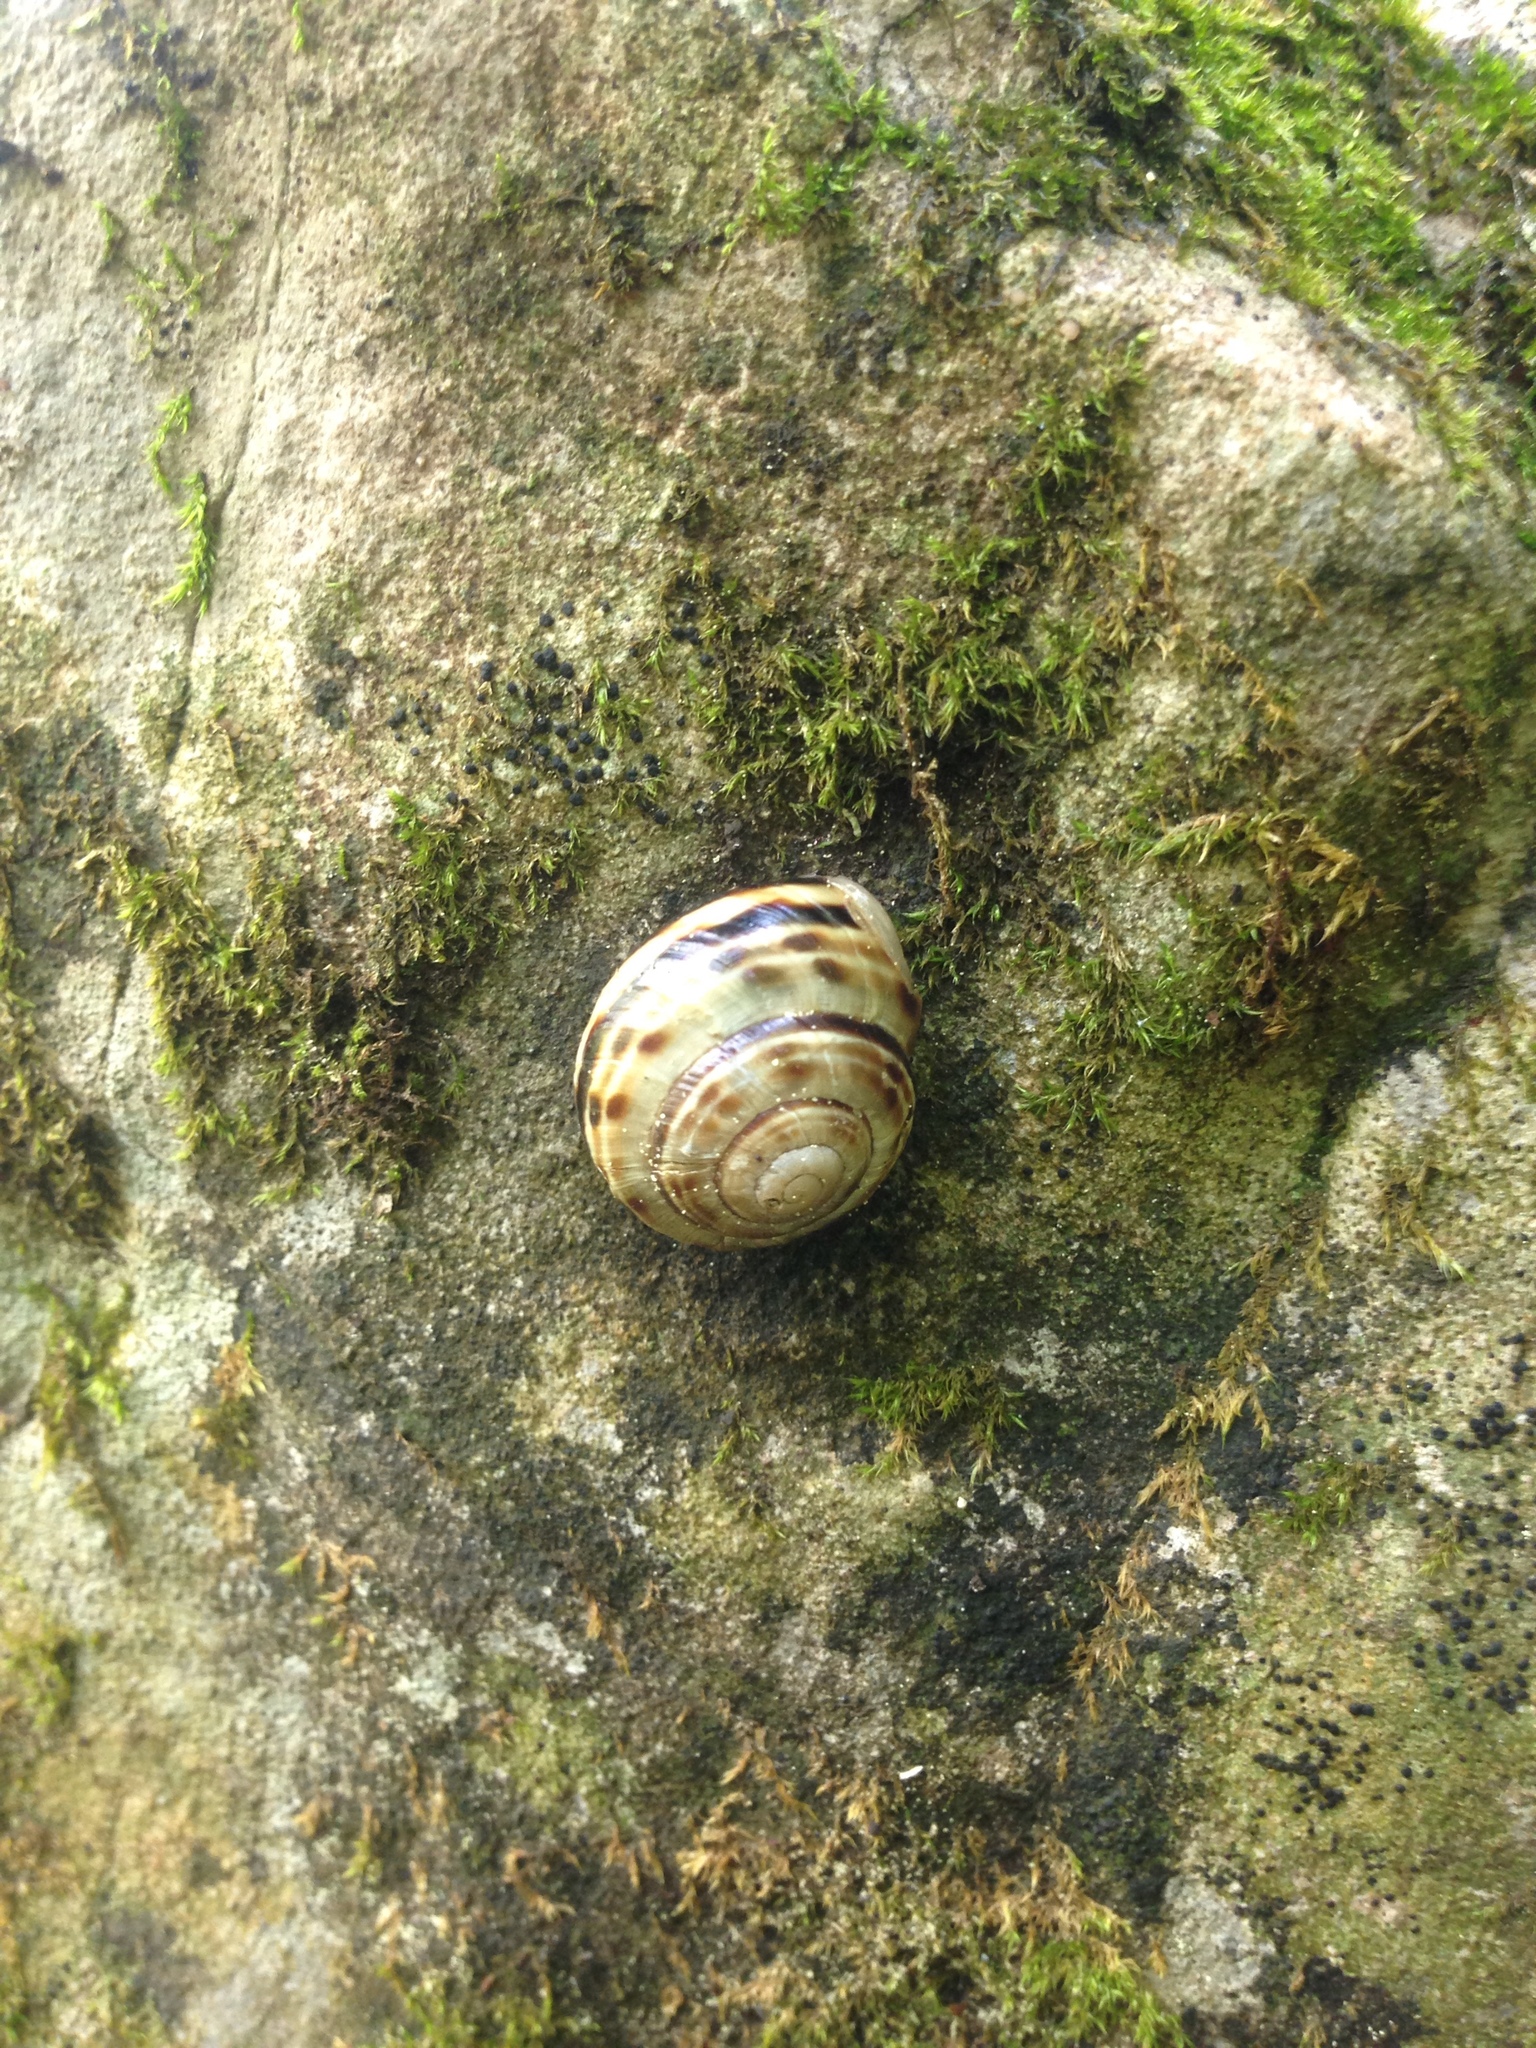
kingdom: Animalia
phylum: Mollusca
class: Gastropoda
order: Stylommatophora
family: Helicidae
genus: Macularia
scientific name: Macularia sylvatica
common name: Hélice sylvatique
